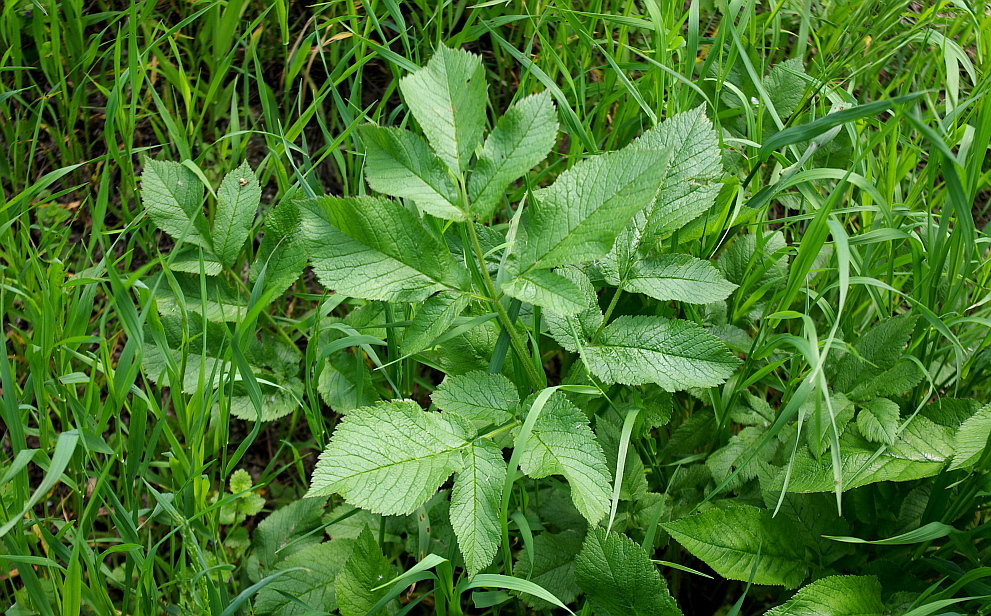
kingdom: Plantae
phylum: Tracheophyta
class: Magnoliopsida
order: Apiales
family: Apiaceae
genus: Chaerophyllum
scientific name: Chaerophyllum aromaticum
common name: Broadleaf chervil
